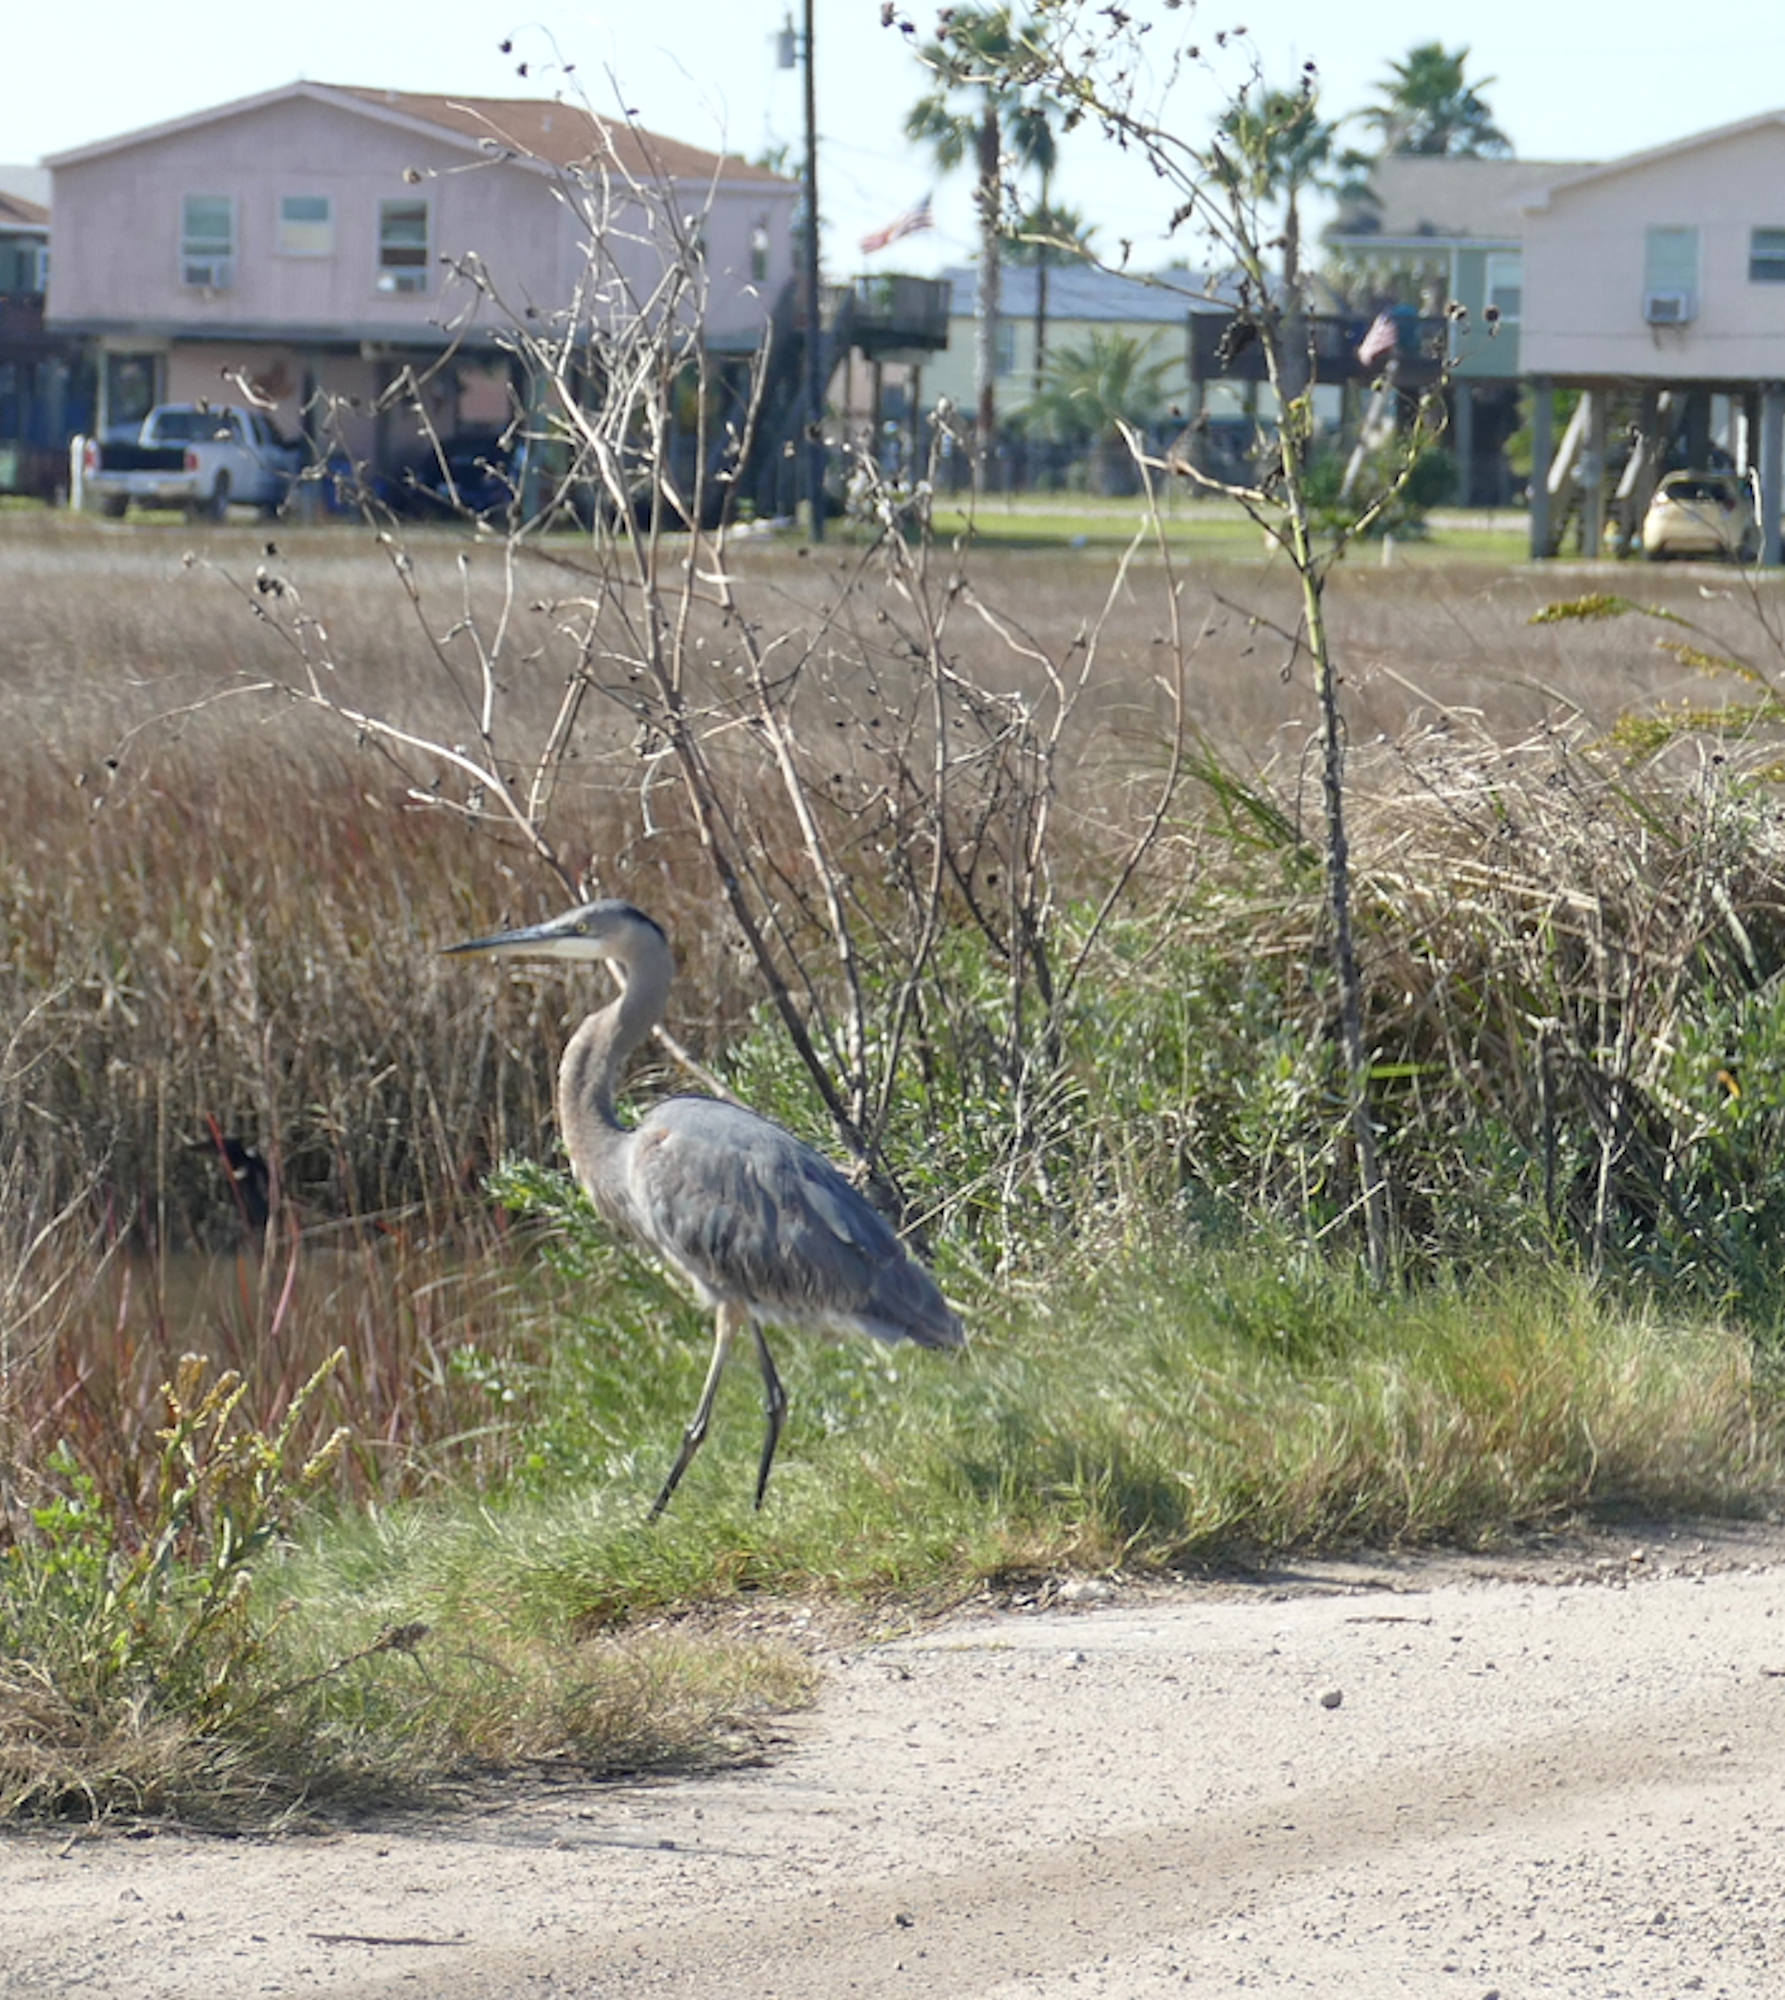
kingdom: Animalia
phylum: Chordata
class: Aves
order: Pelecaniformes
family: Ardeidae
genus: Ardea
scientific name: Ardea herodias
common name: Great blue heron
